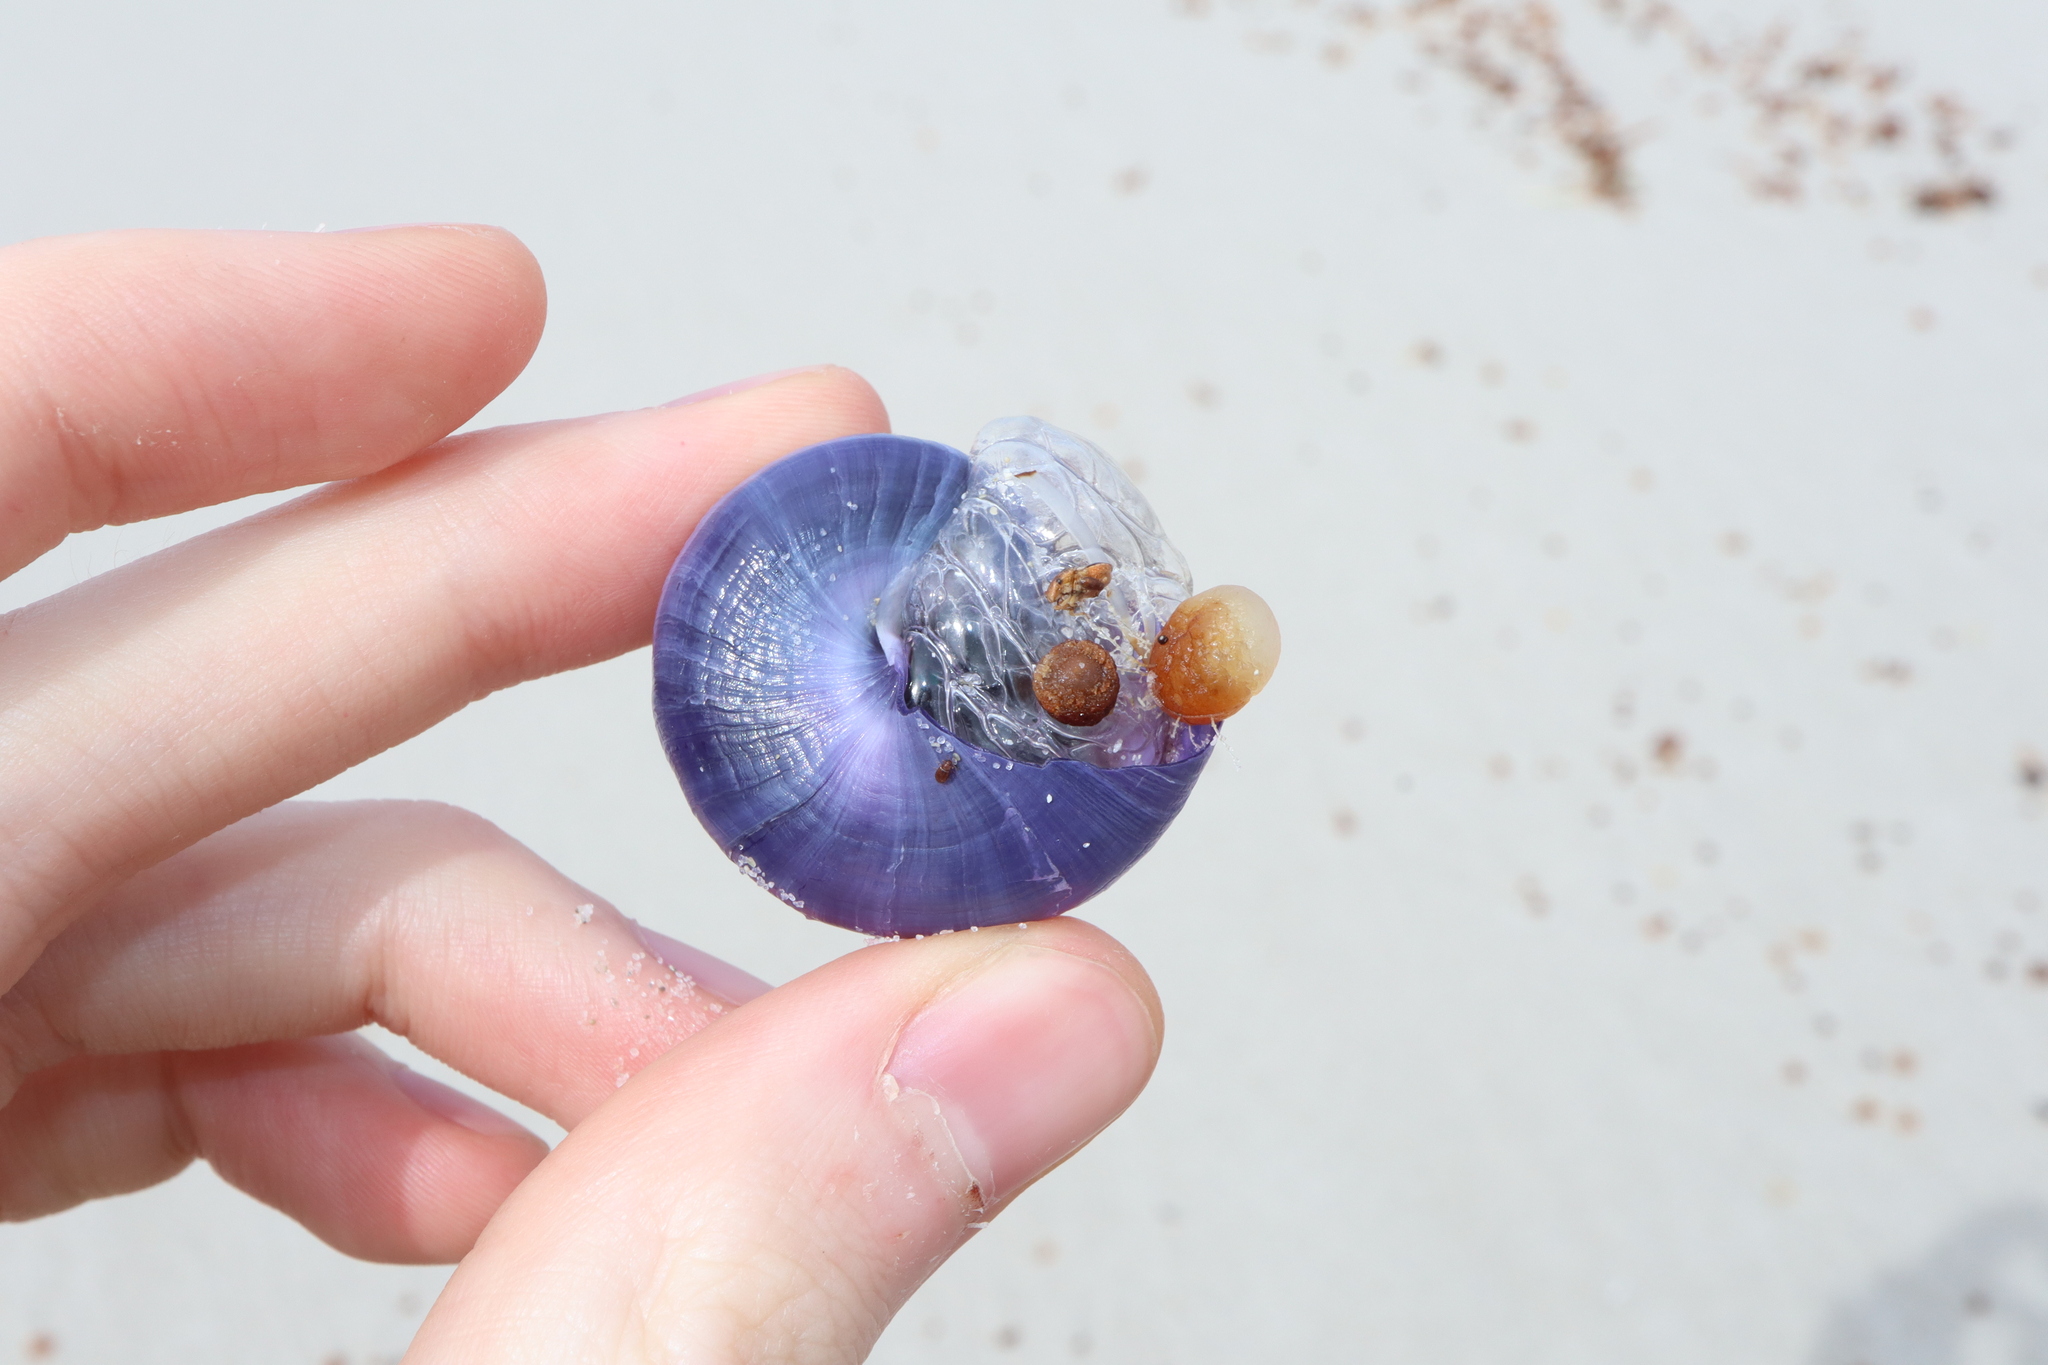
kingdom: Animalia
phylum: Mollusca
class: Gastropoda
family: Epitoniidae
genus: Janthina
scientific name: Janthina janthina
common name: Common janthina
